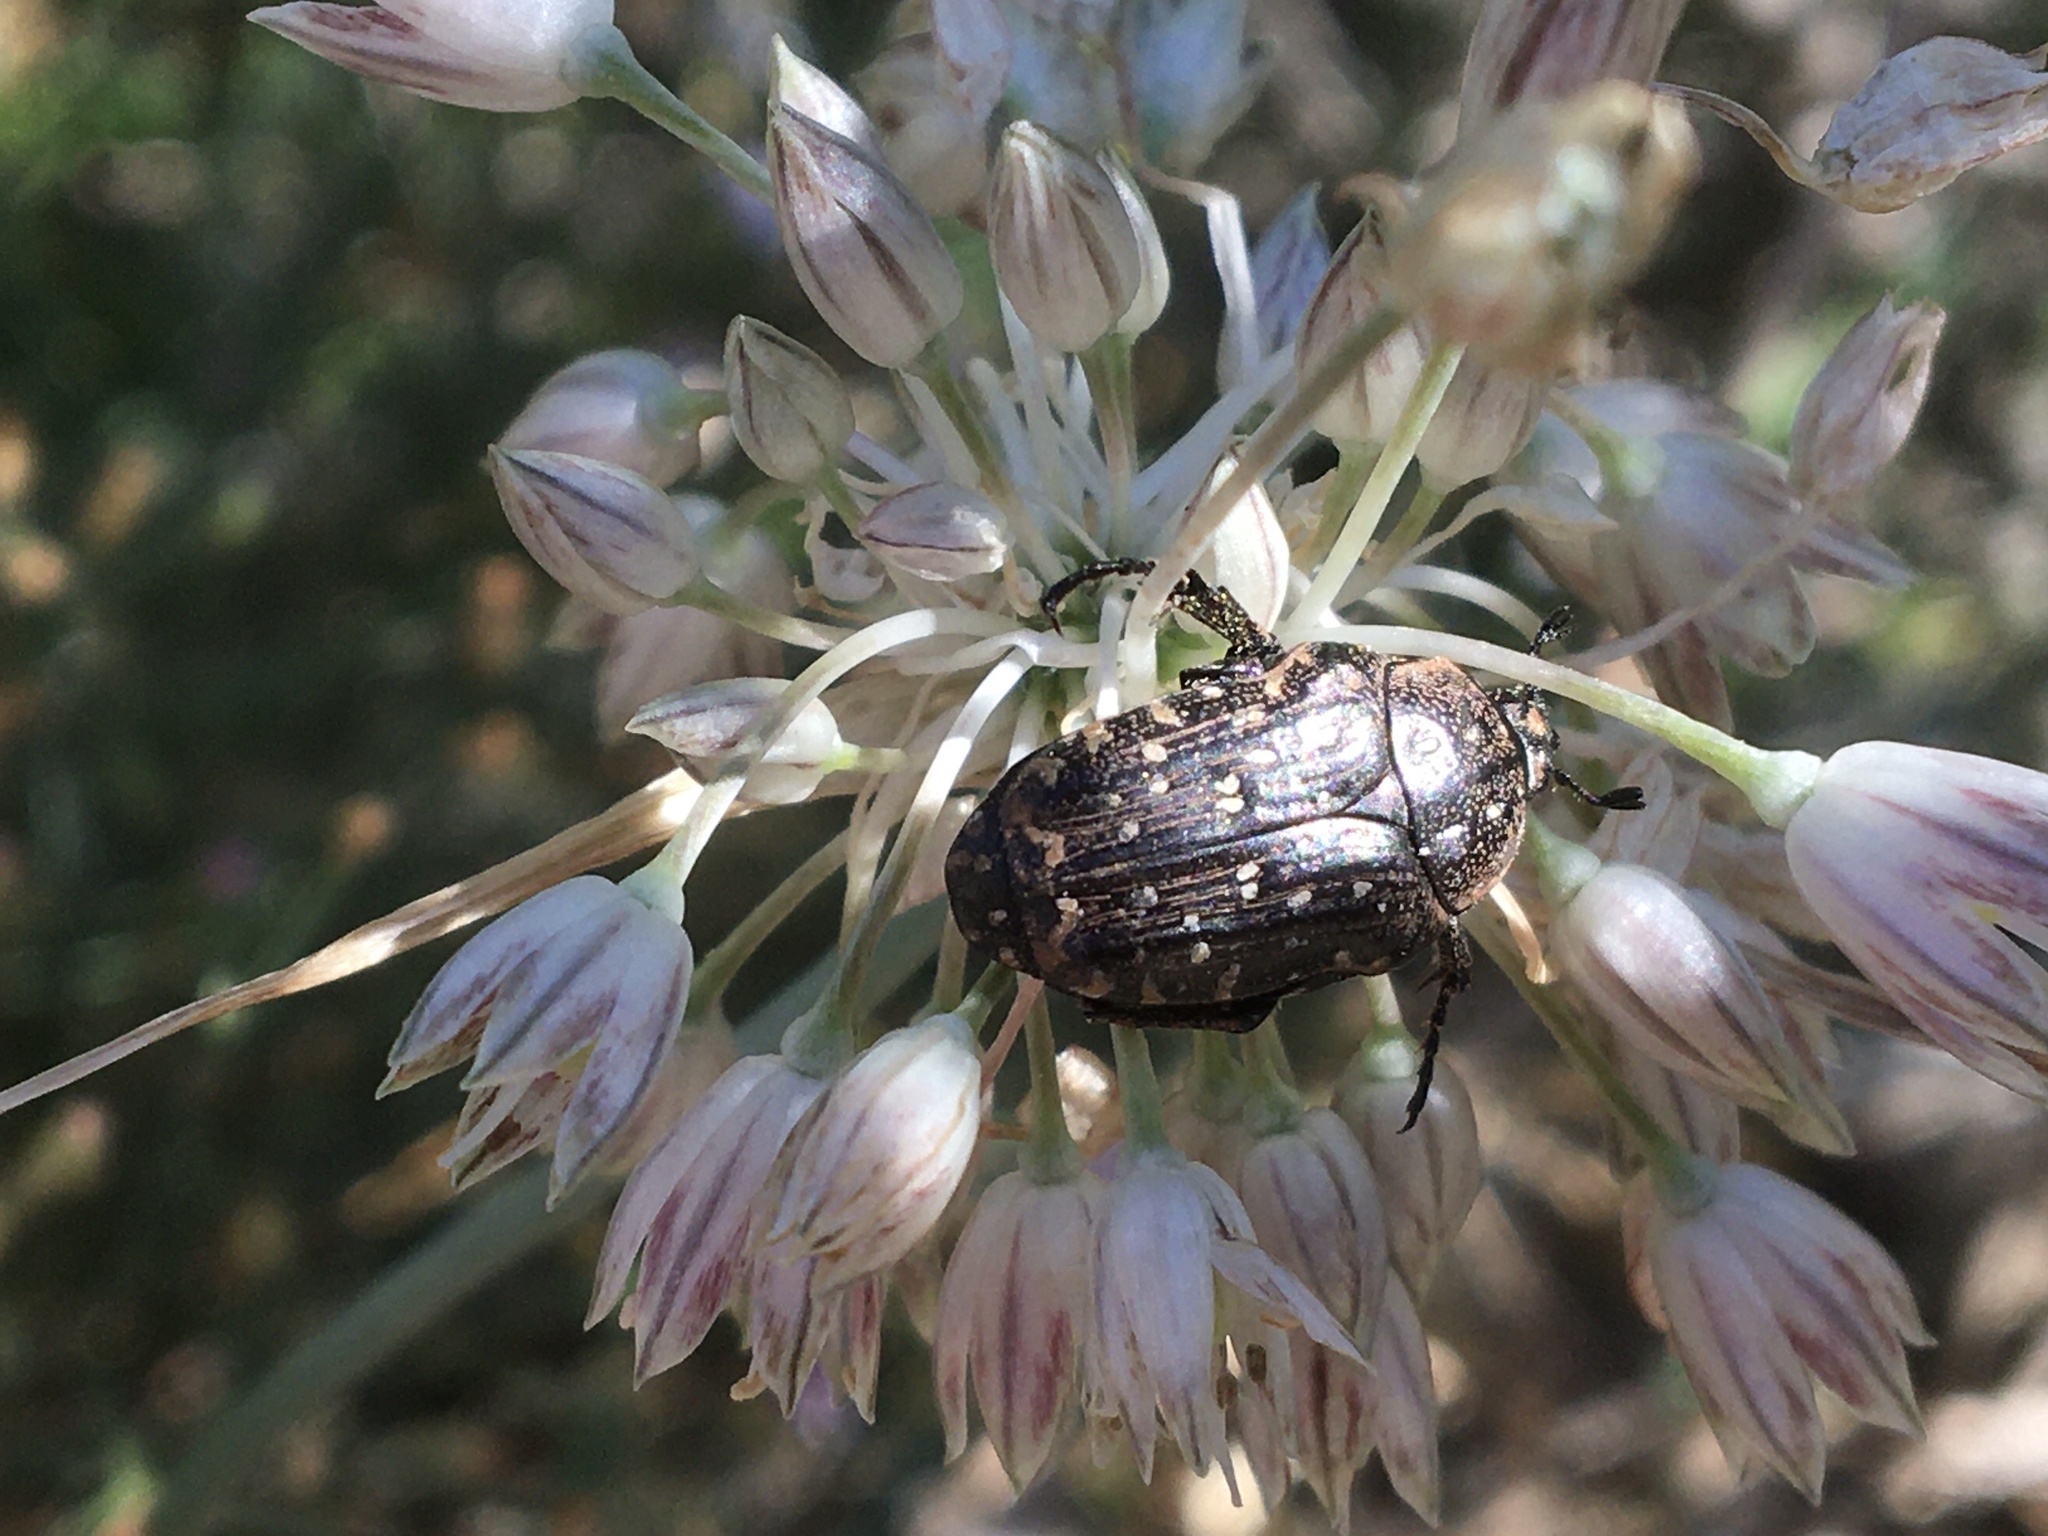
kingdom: Animalia
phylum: Arthropoda
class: Insecta
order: Coleoptera
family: Scarabaeidae
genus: Oxythyrea
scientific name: Oxythyrea funesta
